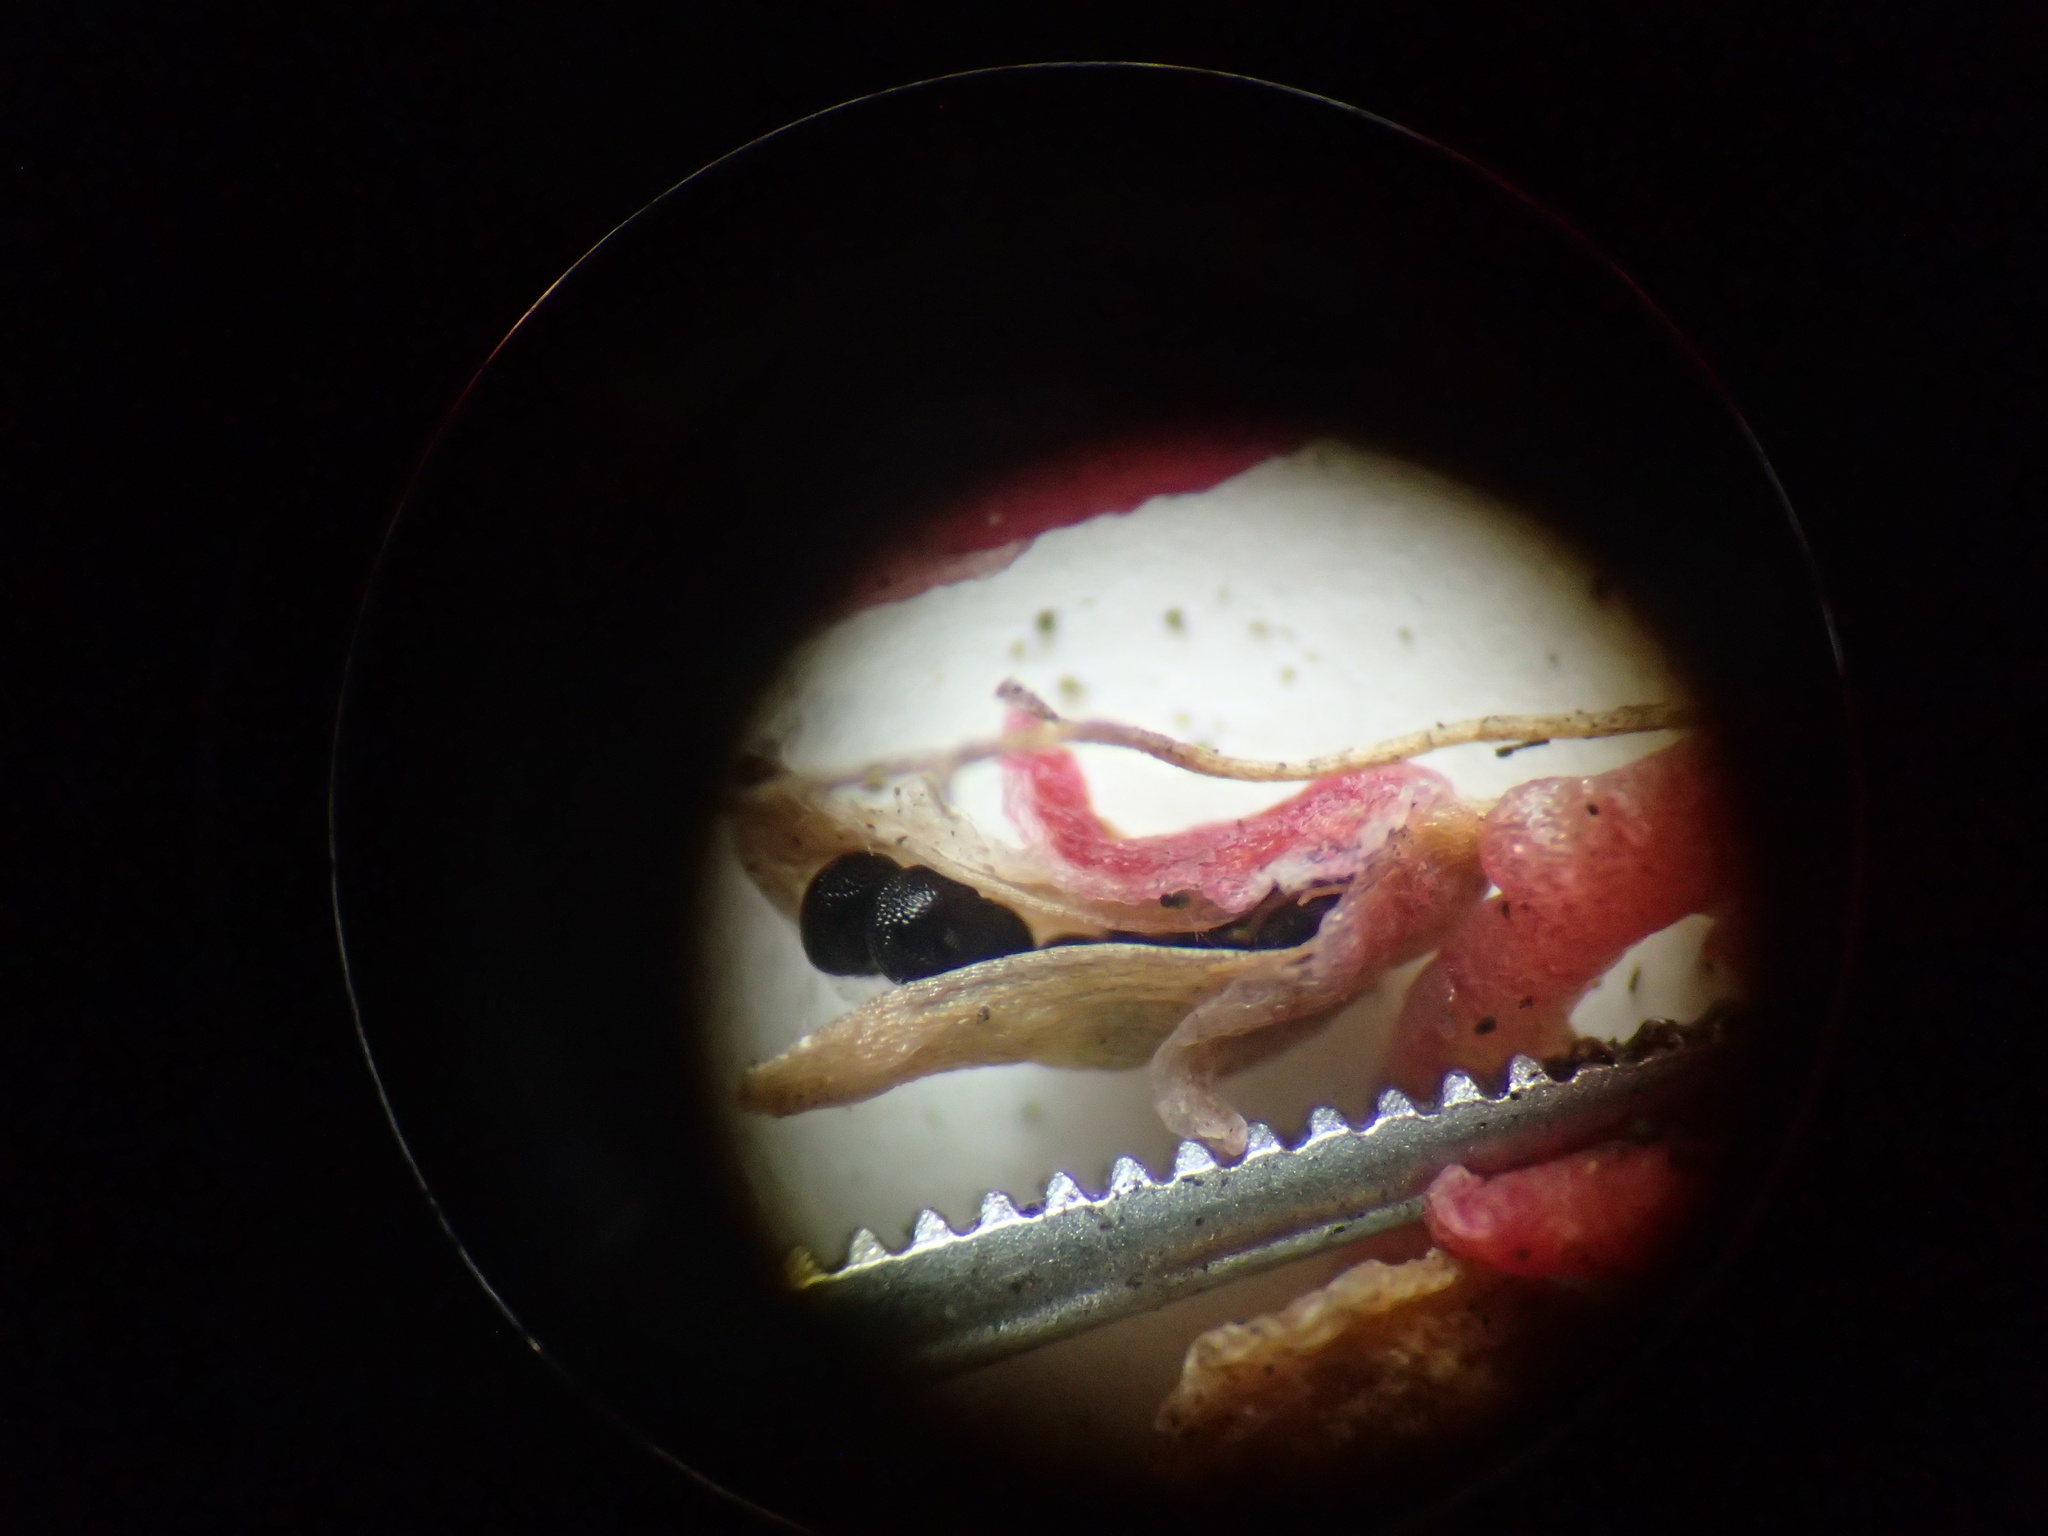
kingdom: Plantae
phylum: Tracheophyta
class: Magnoliopsida
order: Caryophyllales
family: Montiaceae
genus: Calyptridium
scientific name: Calyptridium hesseae
